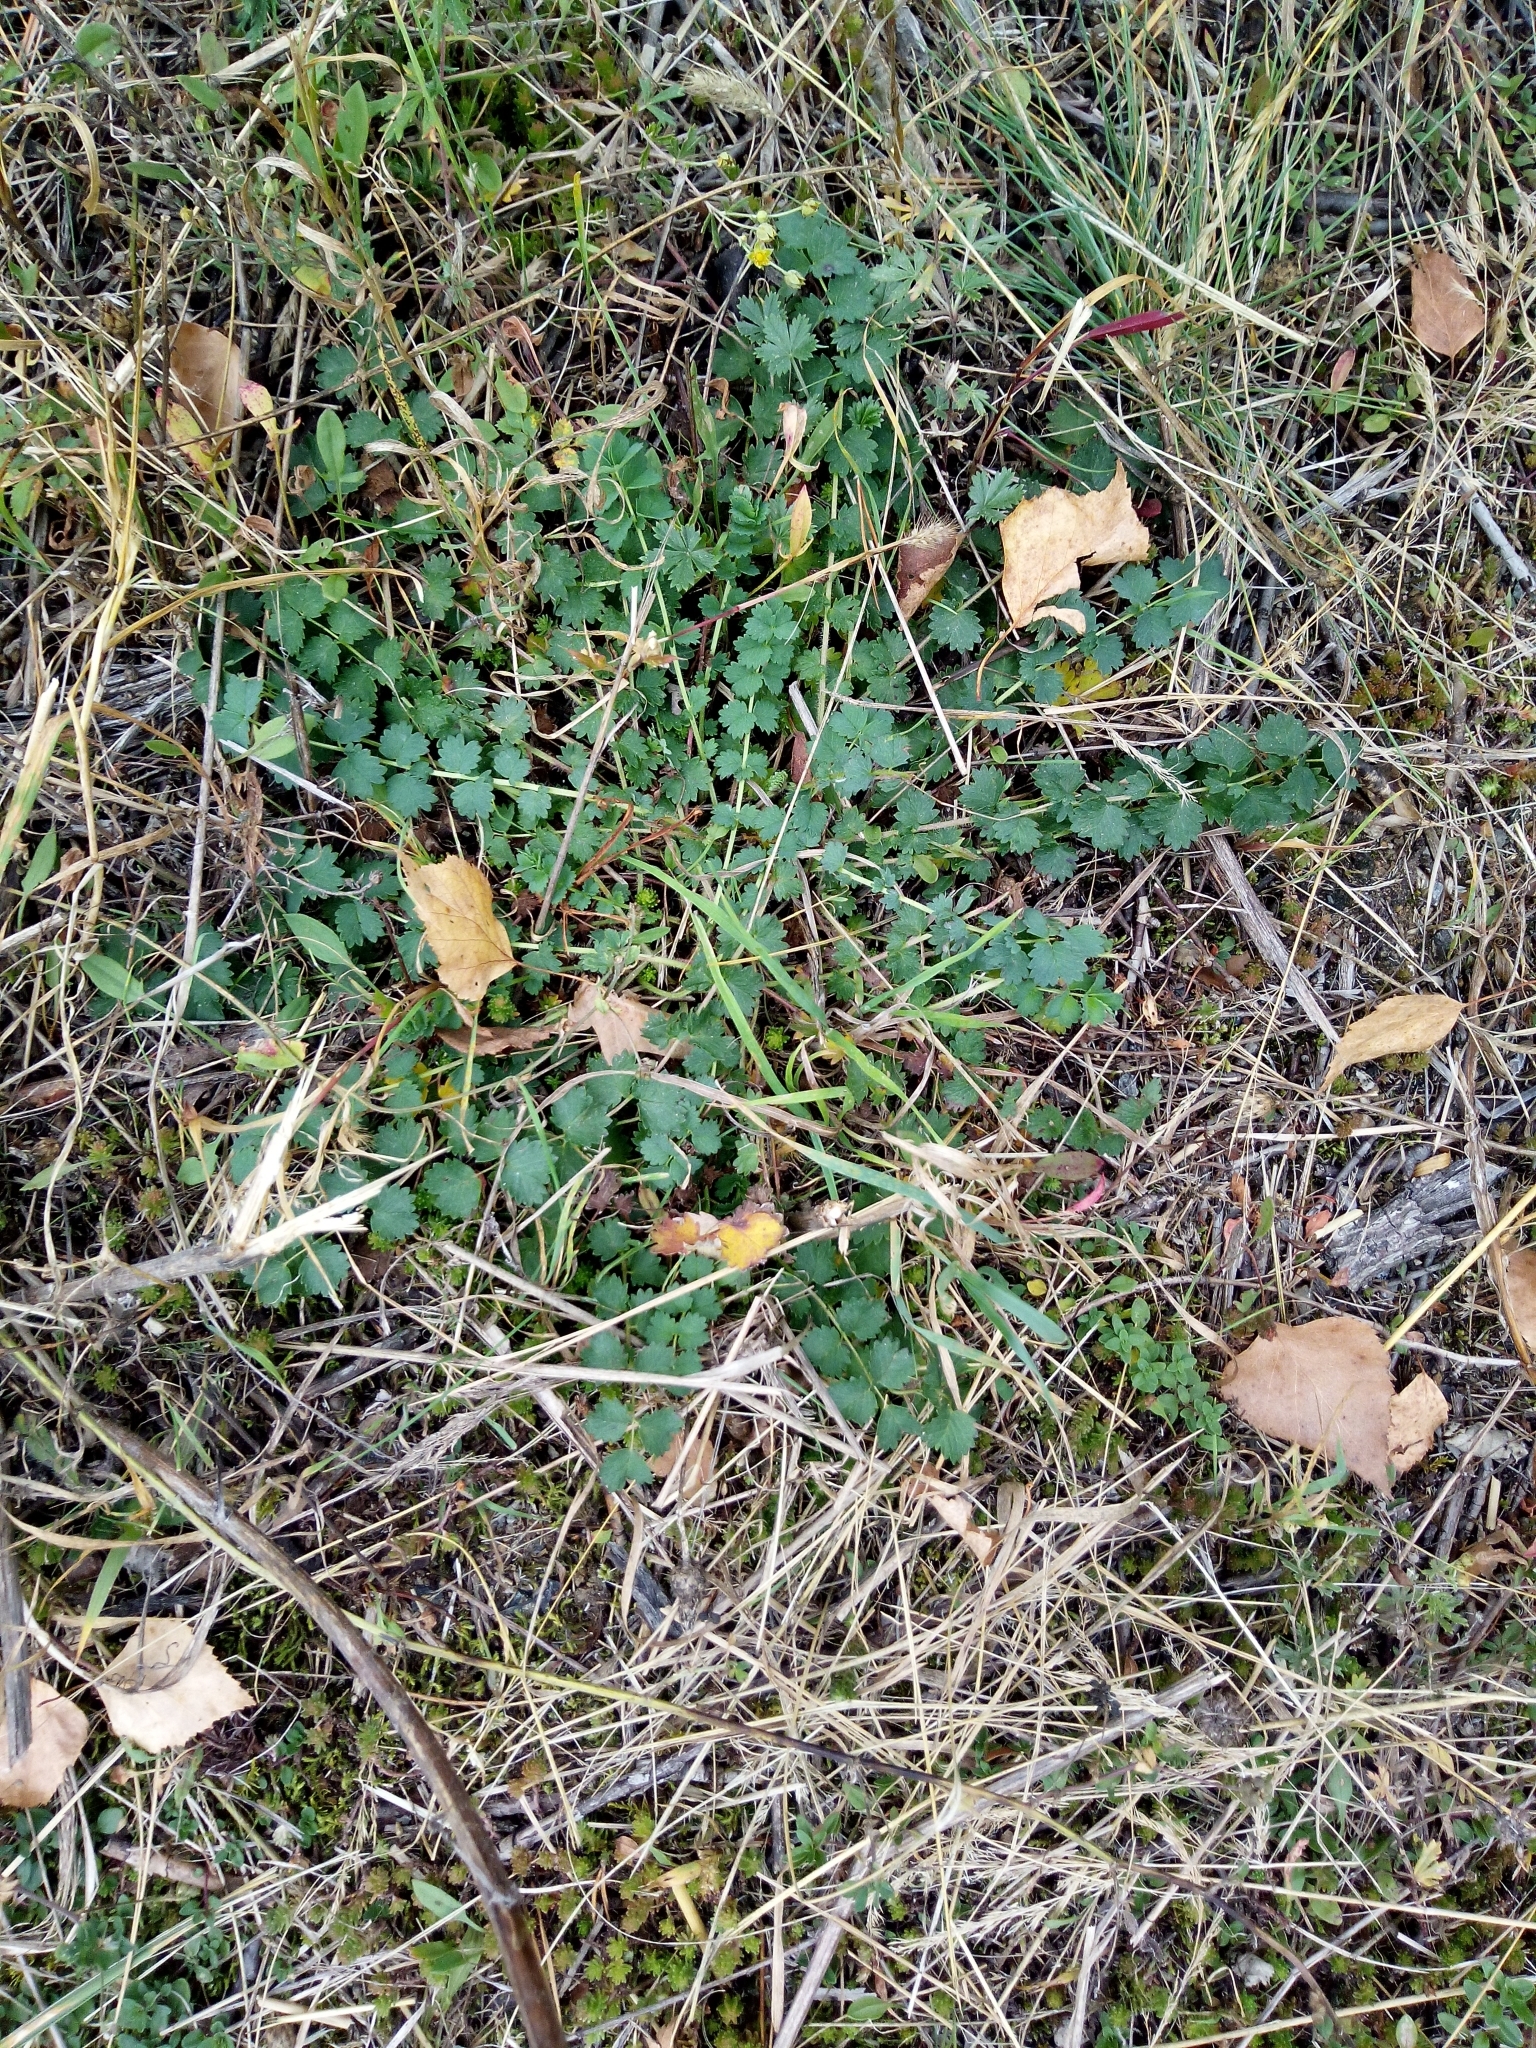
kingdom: Plantae
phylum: Tracheophyta
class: Magnoliopsida
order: Rosales
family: Rosaceae
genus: Poterium
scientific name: Poterium sanguisorba
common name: Salad burnet
